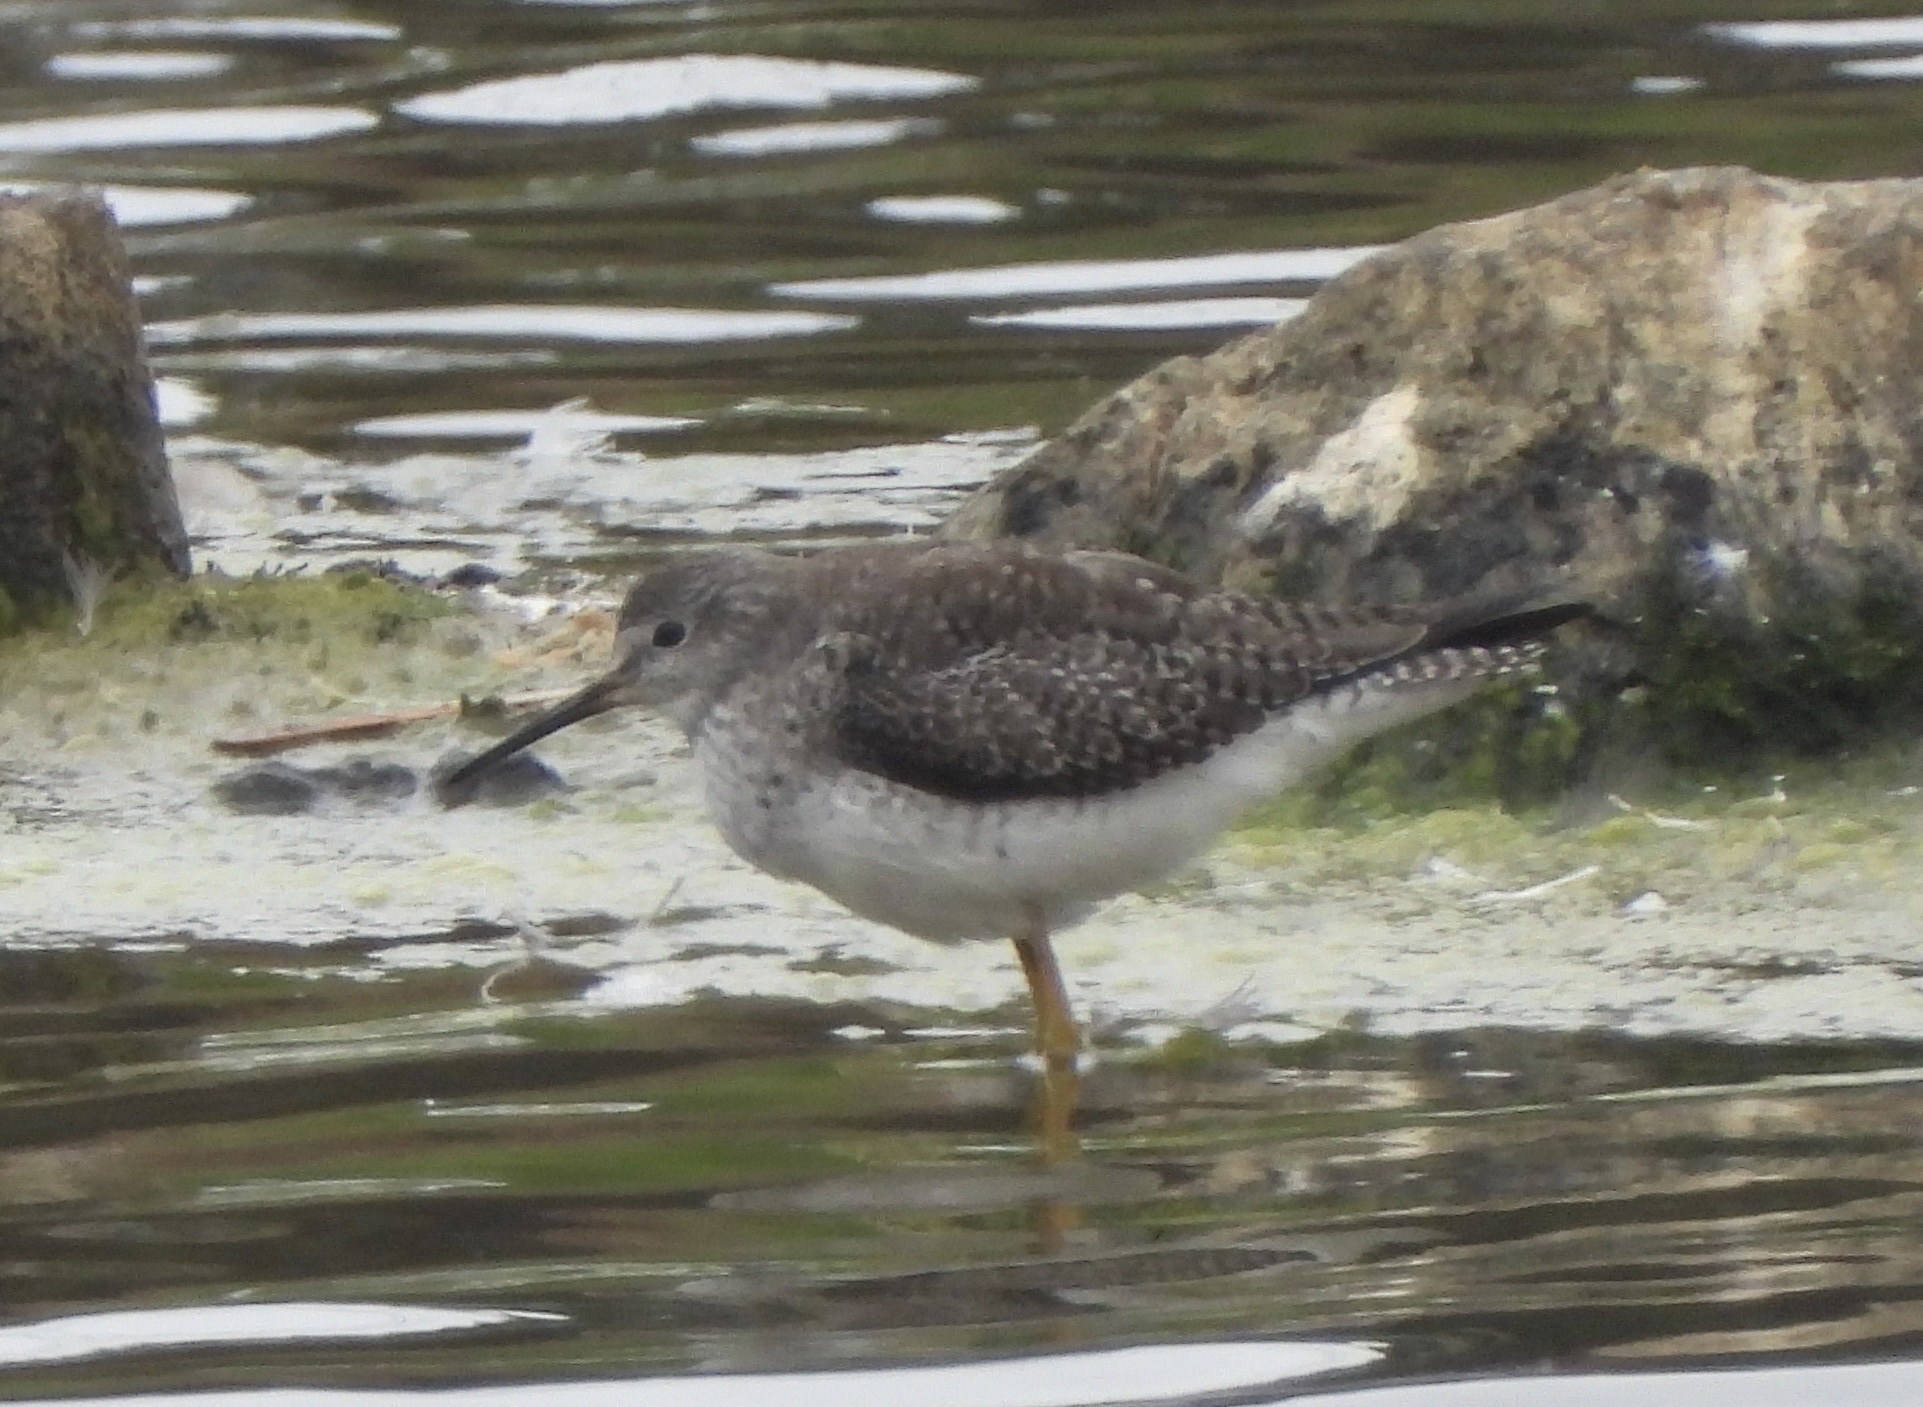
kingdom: Animalia
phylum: Chordata
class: Aves
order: Charadriiformes
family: Scolopacidae
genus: Tringa
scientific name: Tringa flavipes
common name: Lesser yellowlegs
